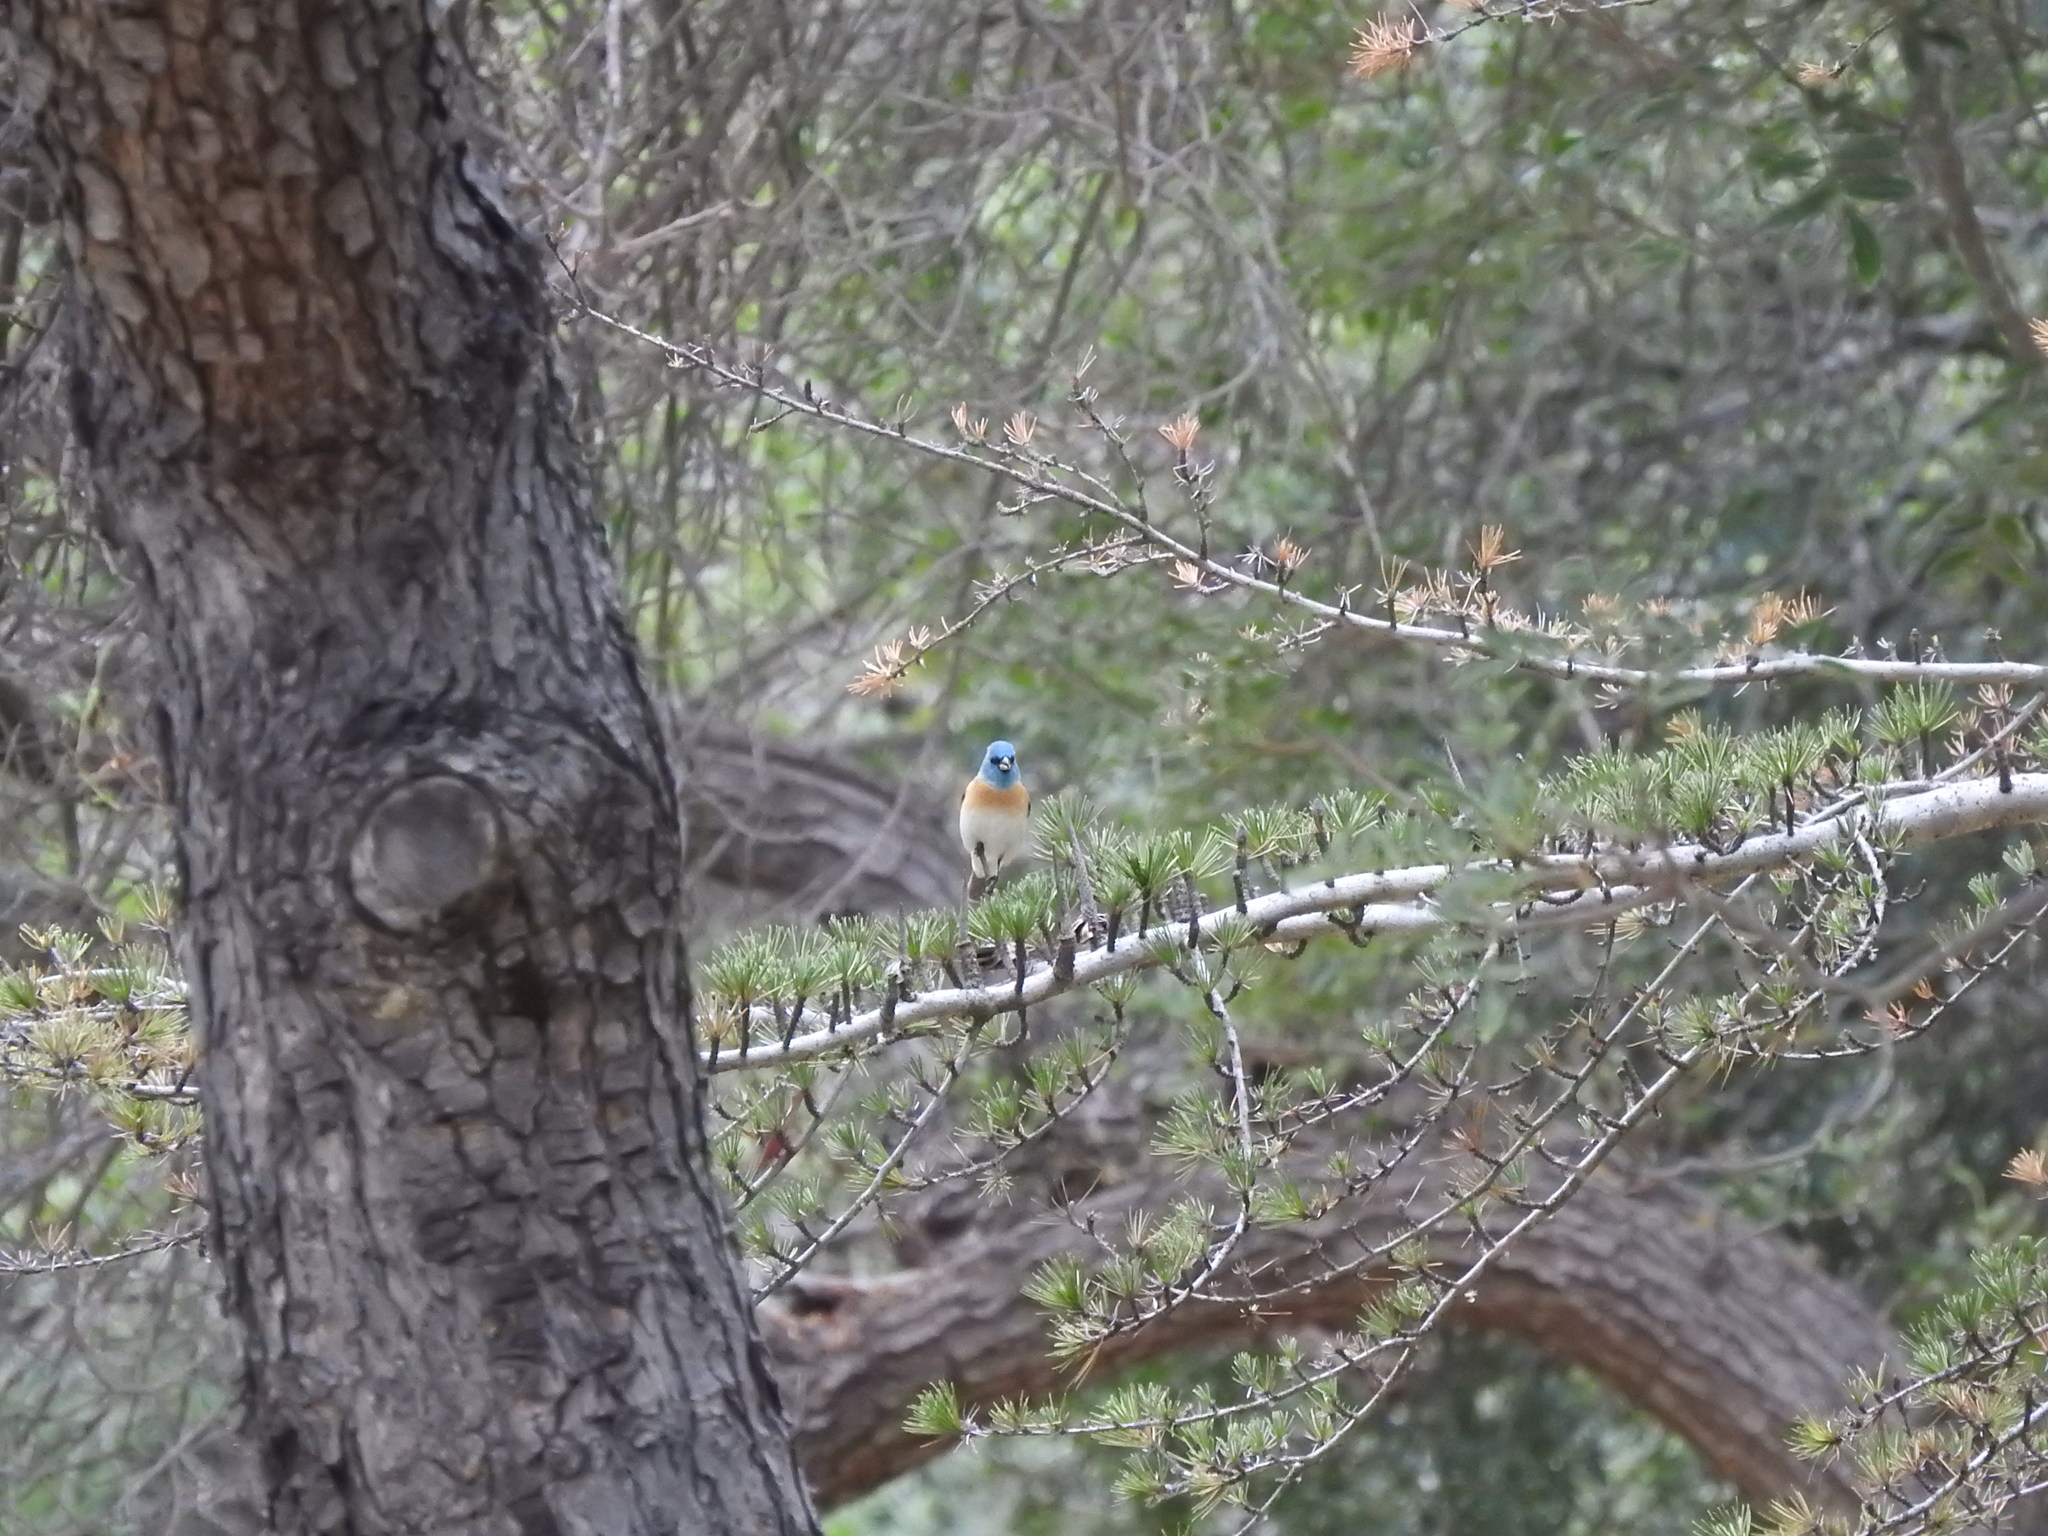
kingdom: Animalia
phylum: Chordata
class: Aves
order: Passeriformes
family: Cardinalidae
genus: Passerina
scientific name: Passerina amoena
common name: Lazuli bunting
